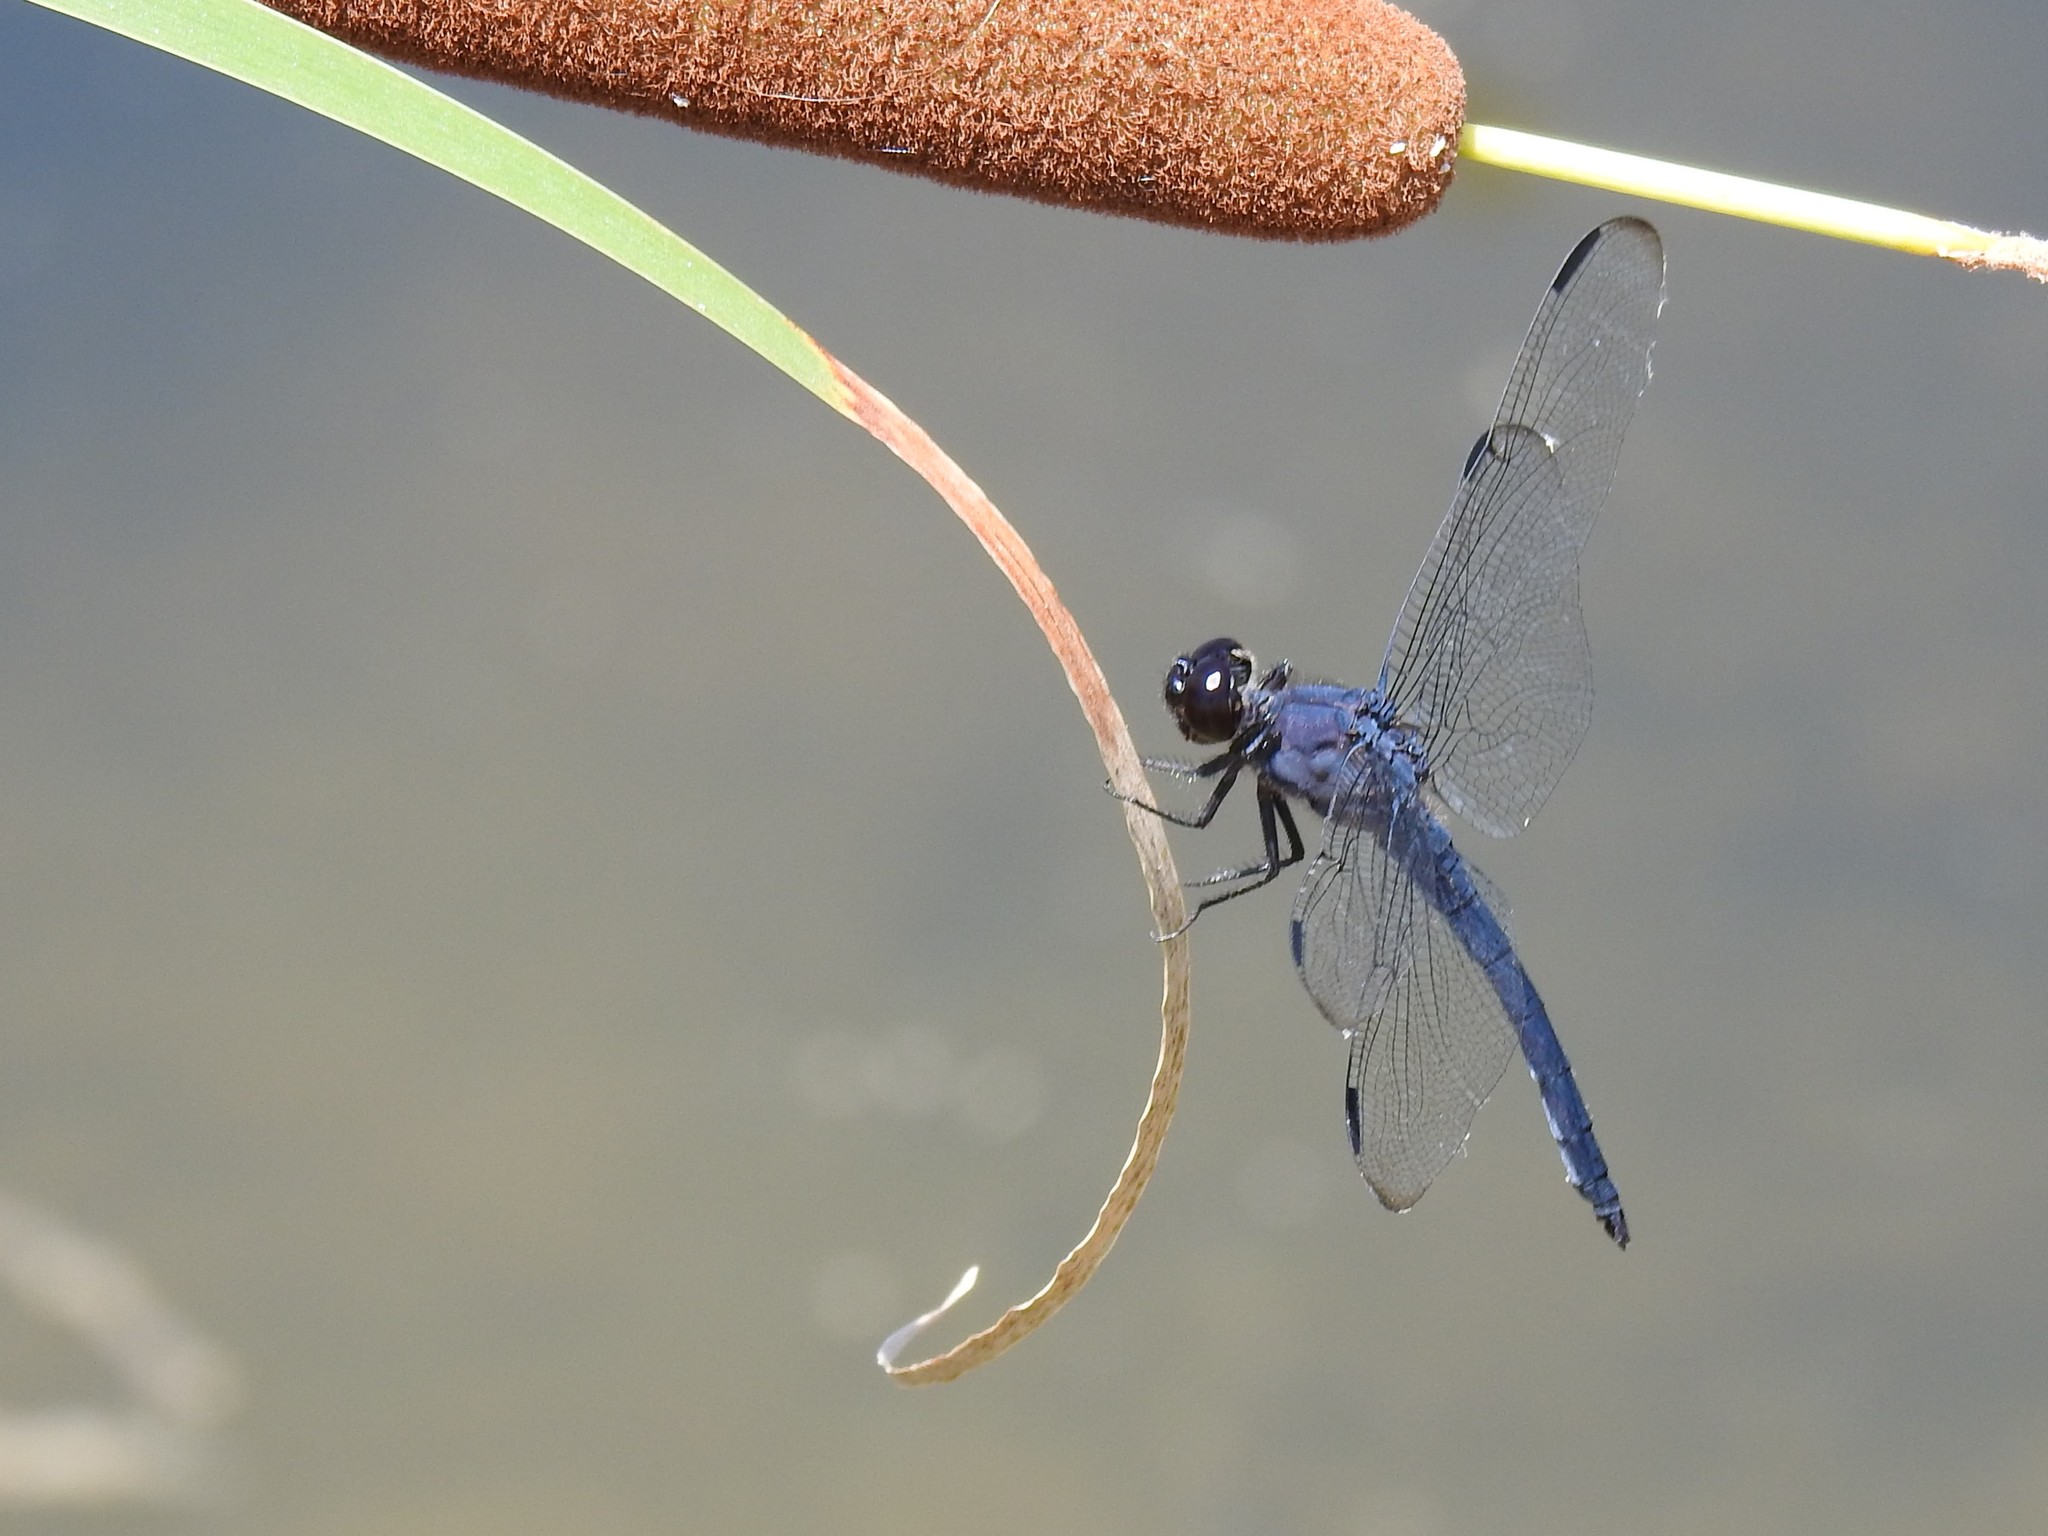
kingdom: Animalia
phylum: Arthropoda
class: Insecta
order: Odonata
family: Libellulidae
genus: Libellula
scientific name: Libellula incesta
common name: Slaty skimmer
